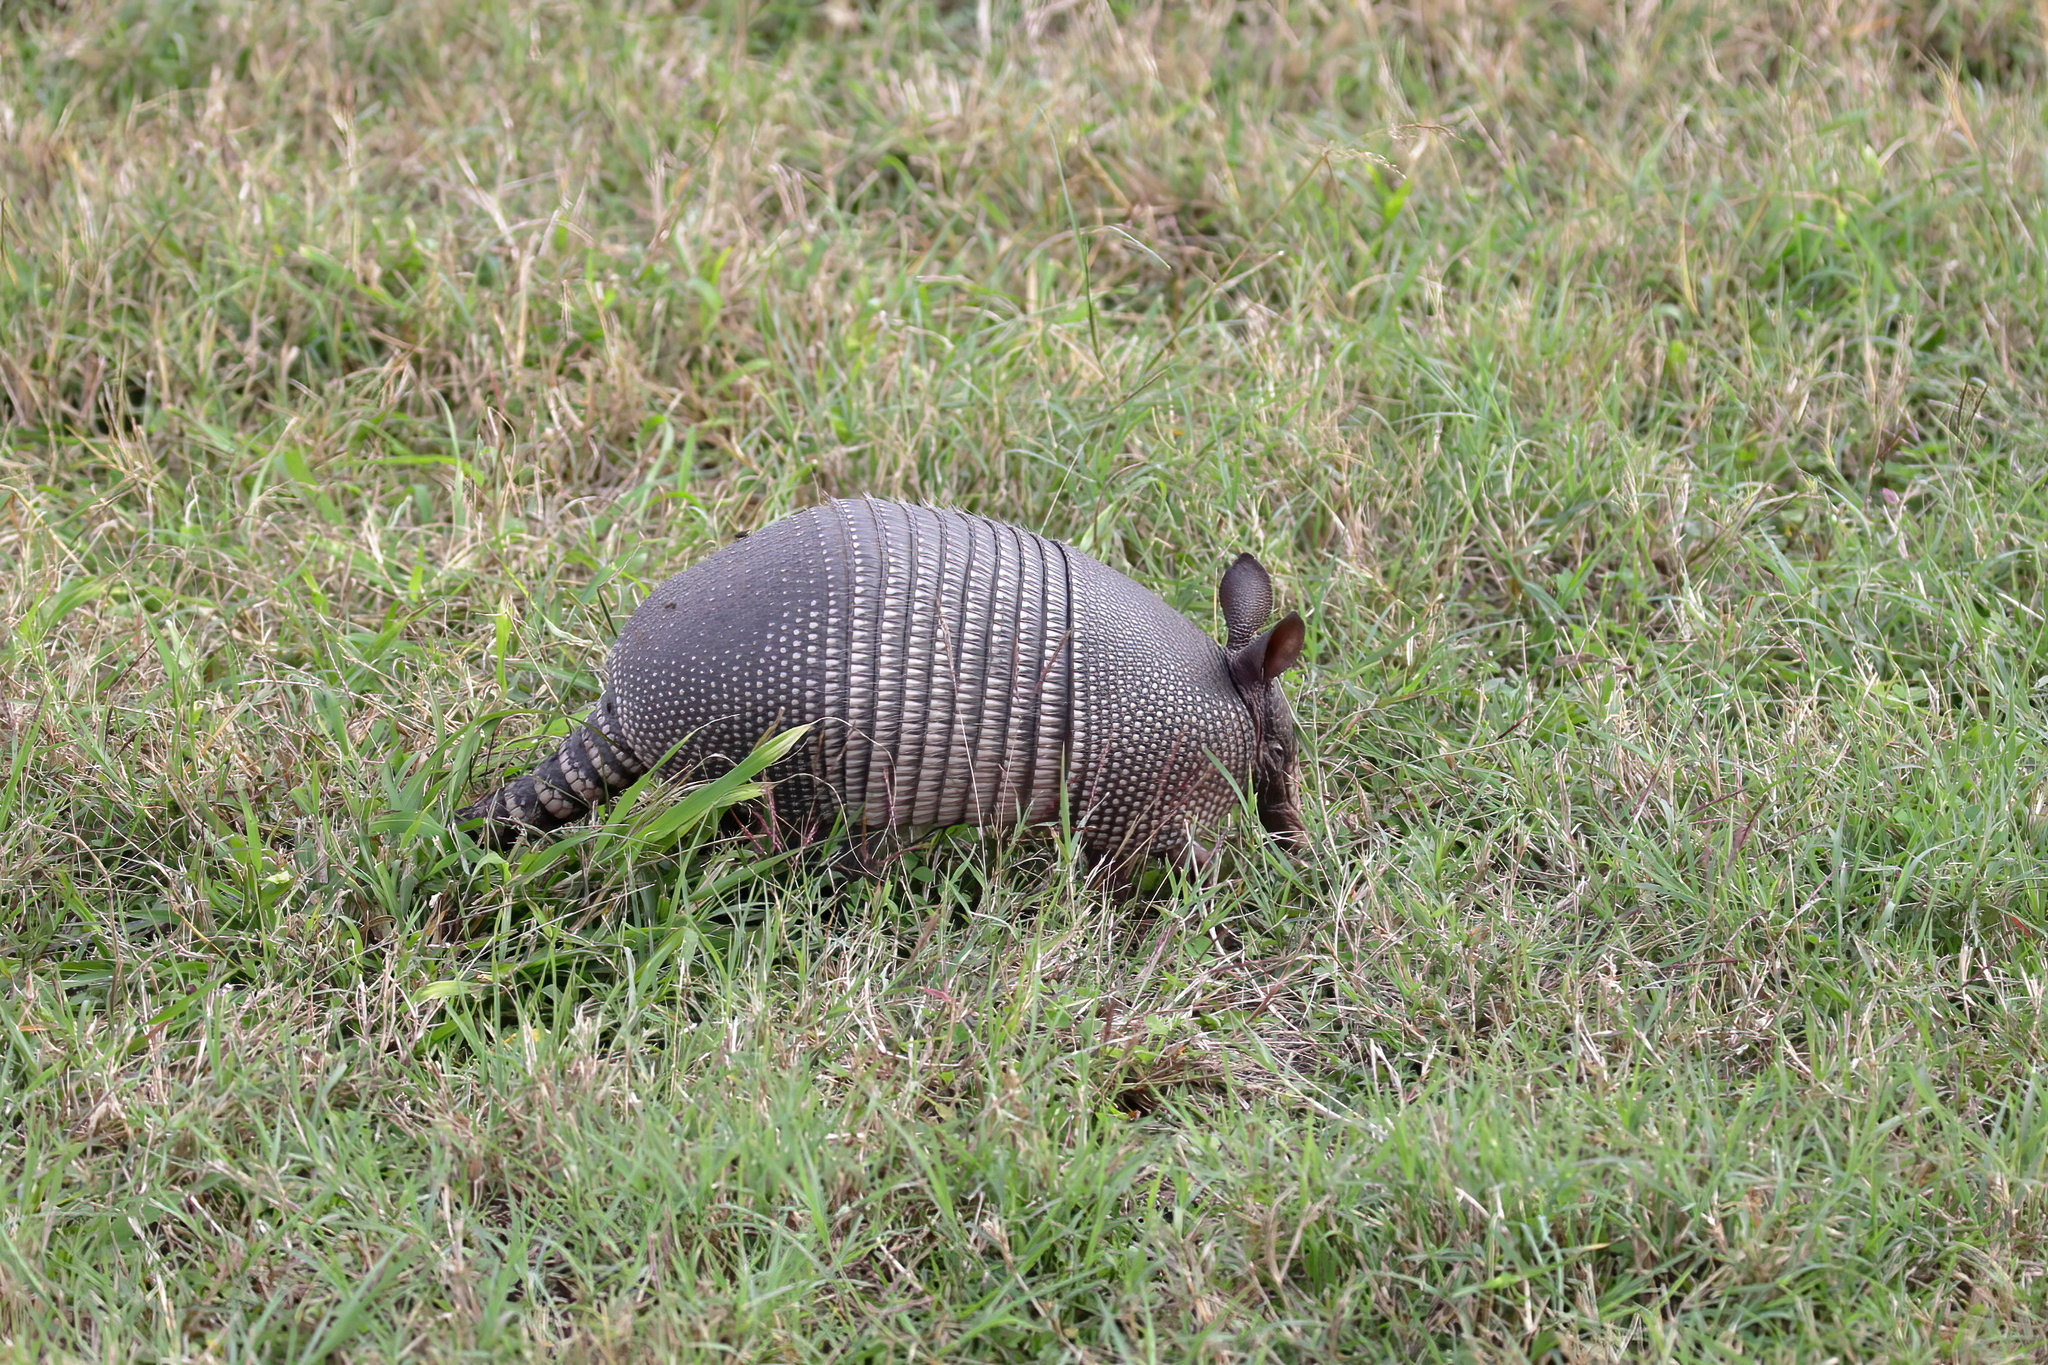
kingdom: Animalia
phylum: Chordata
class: Mammalia
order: Cingulata
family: Dasypodidae
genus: Dasypus
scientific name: Dasypus novemcinctus
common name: Nine-banded armadillo
